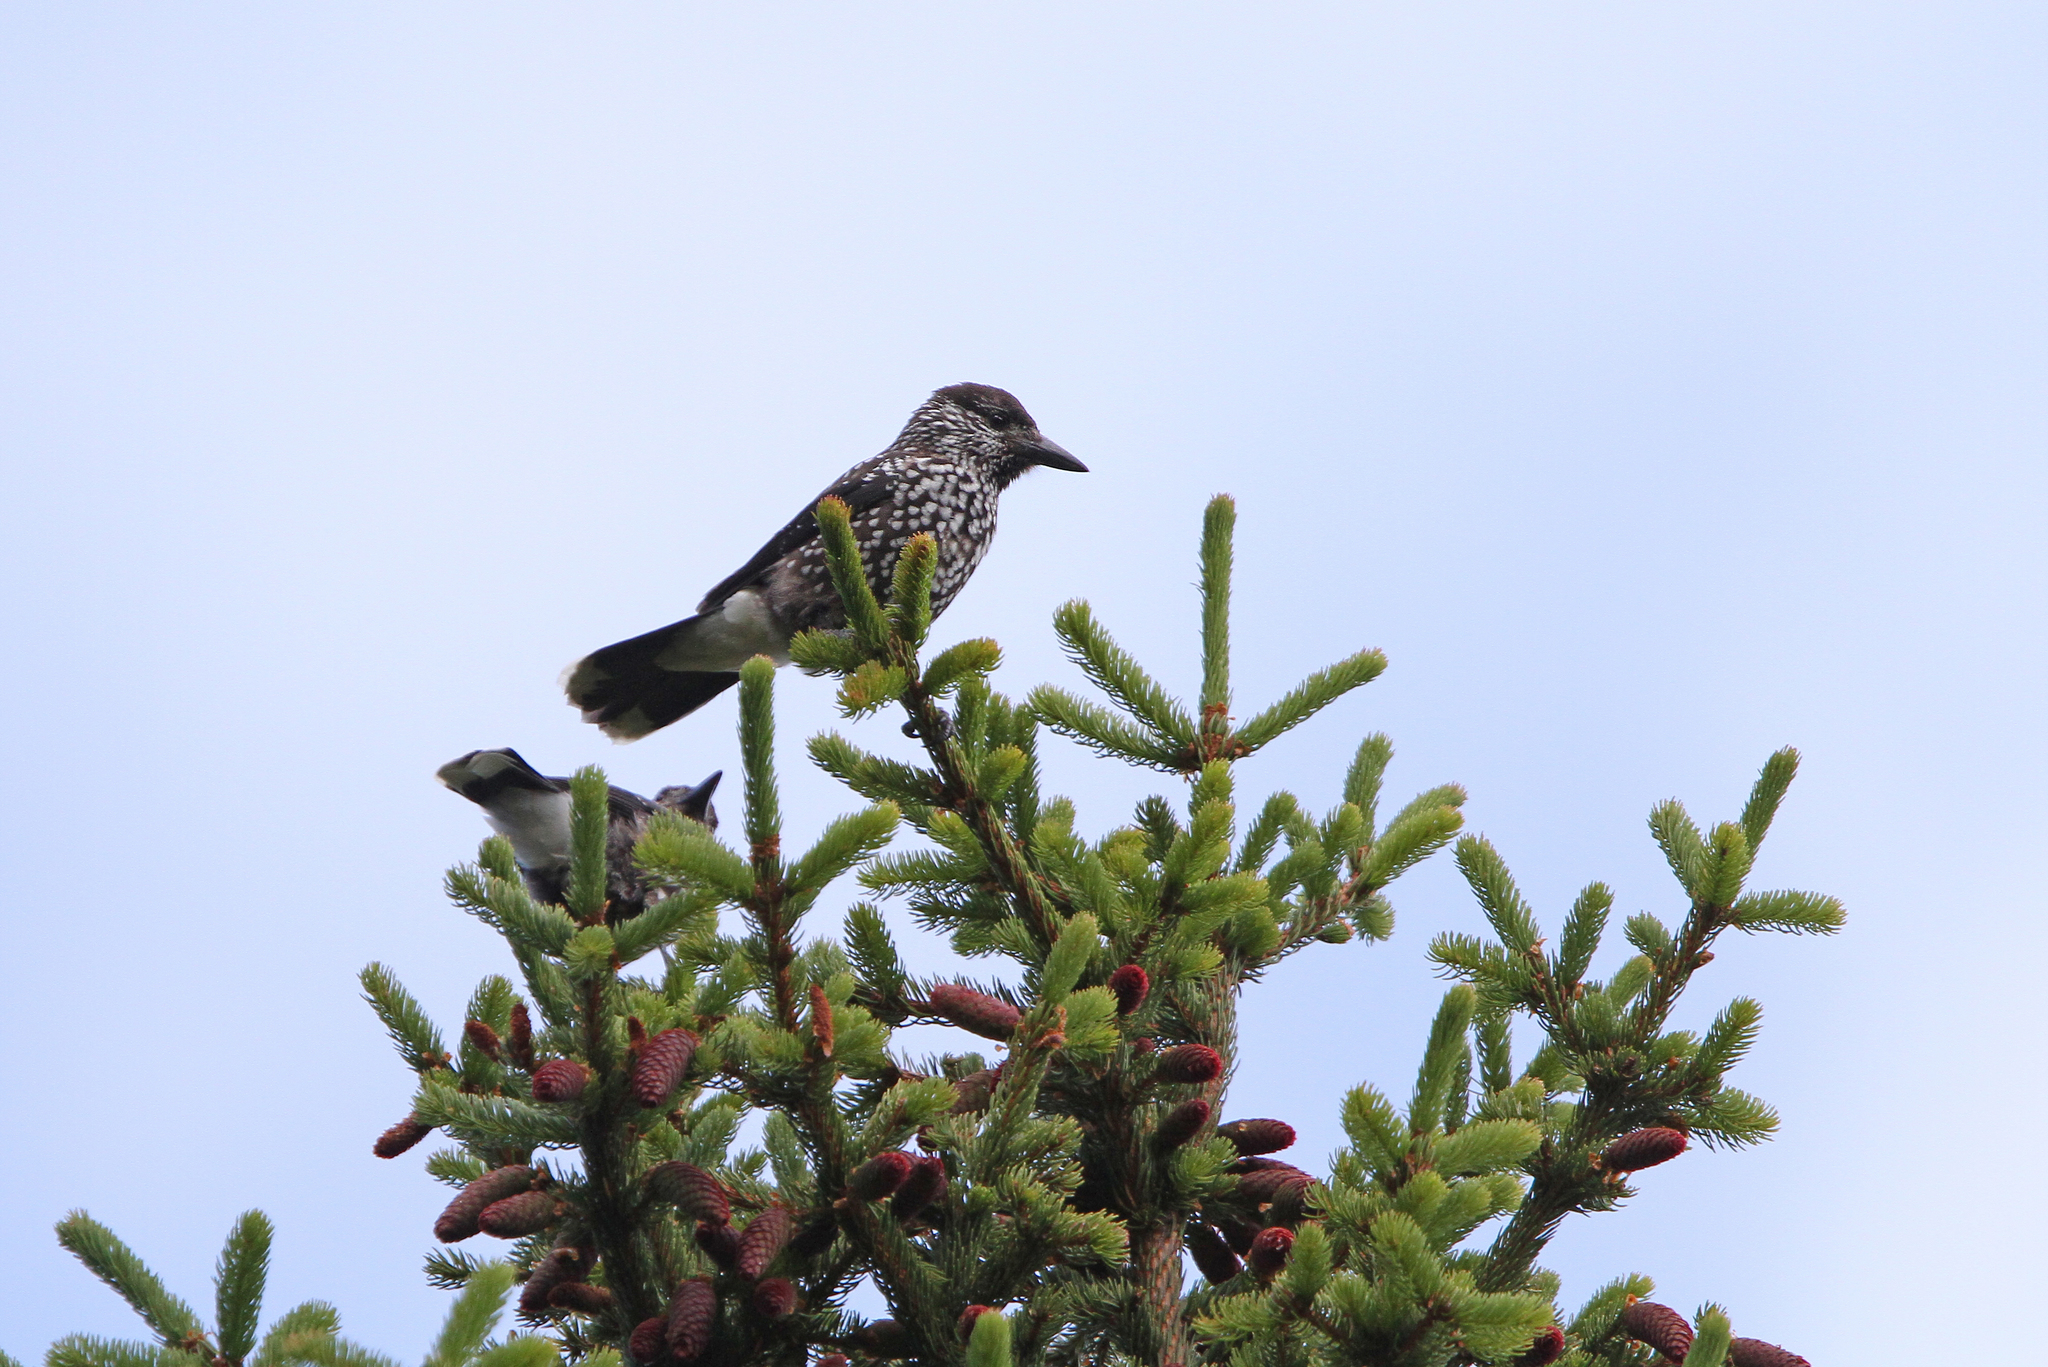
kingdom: Animalia
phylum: Chordata
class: Aves
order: Passeriformes
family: Corvidae
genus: Nucifraga
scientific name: Nucifraga caryocatactes
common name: Spotted nutcracker
